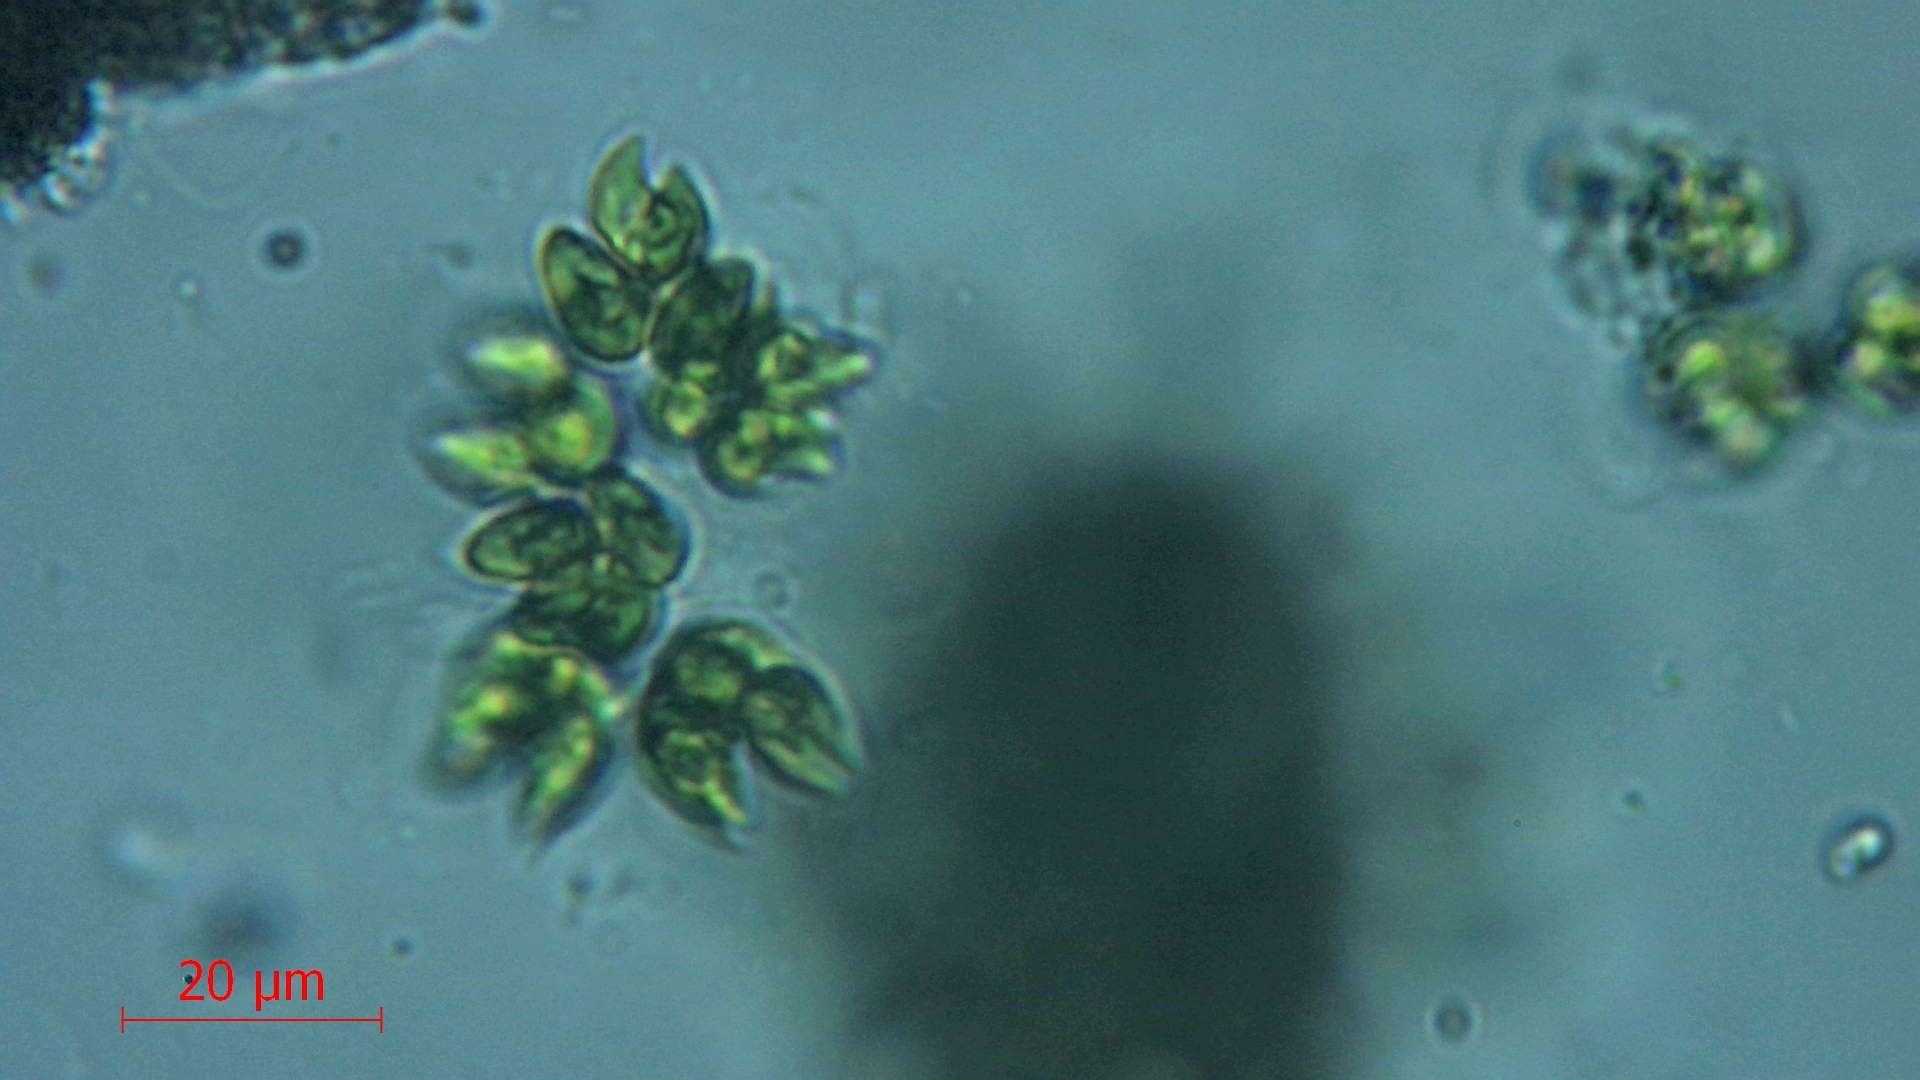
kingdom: Plantae
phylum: Chlorophyta
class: Chlorophyceae
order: Sphaeropleales
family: Selenastraceae
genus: Kirchneriella
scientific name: Kirchneriella lunaris
